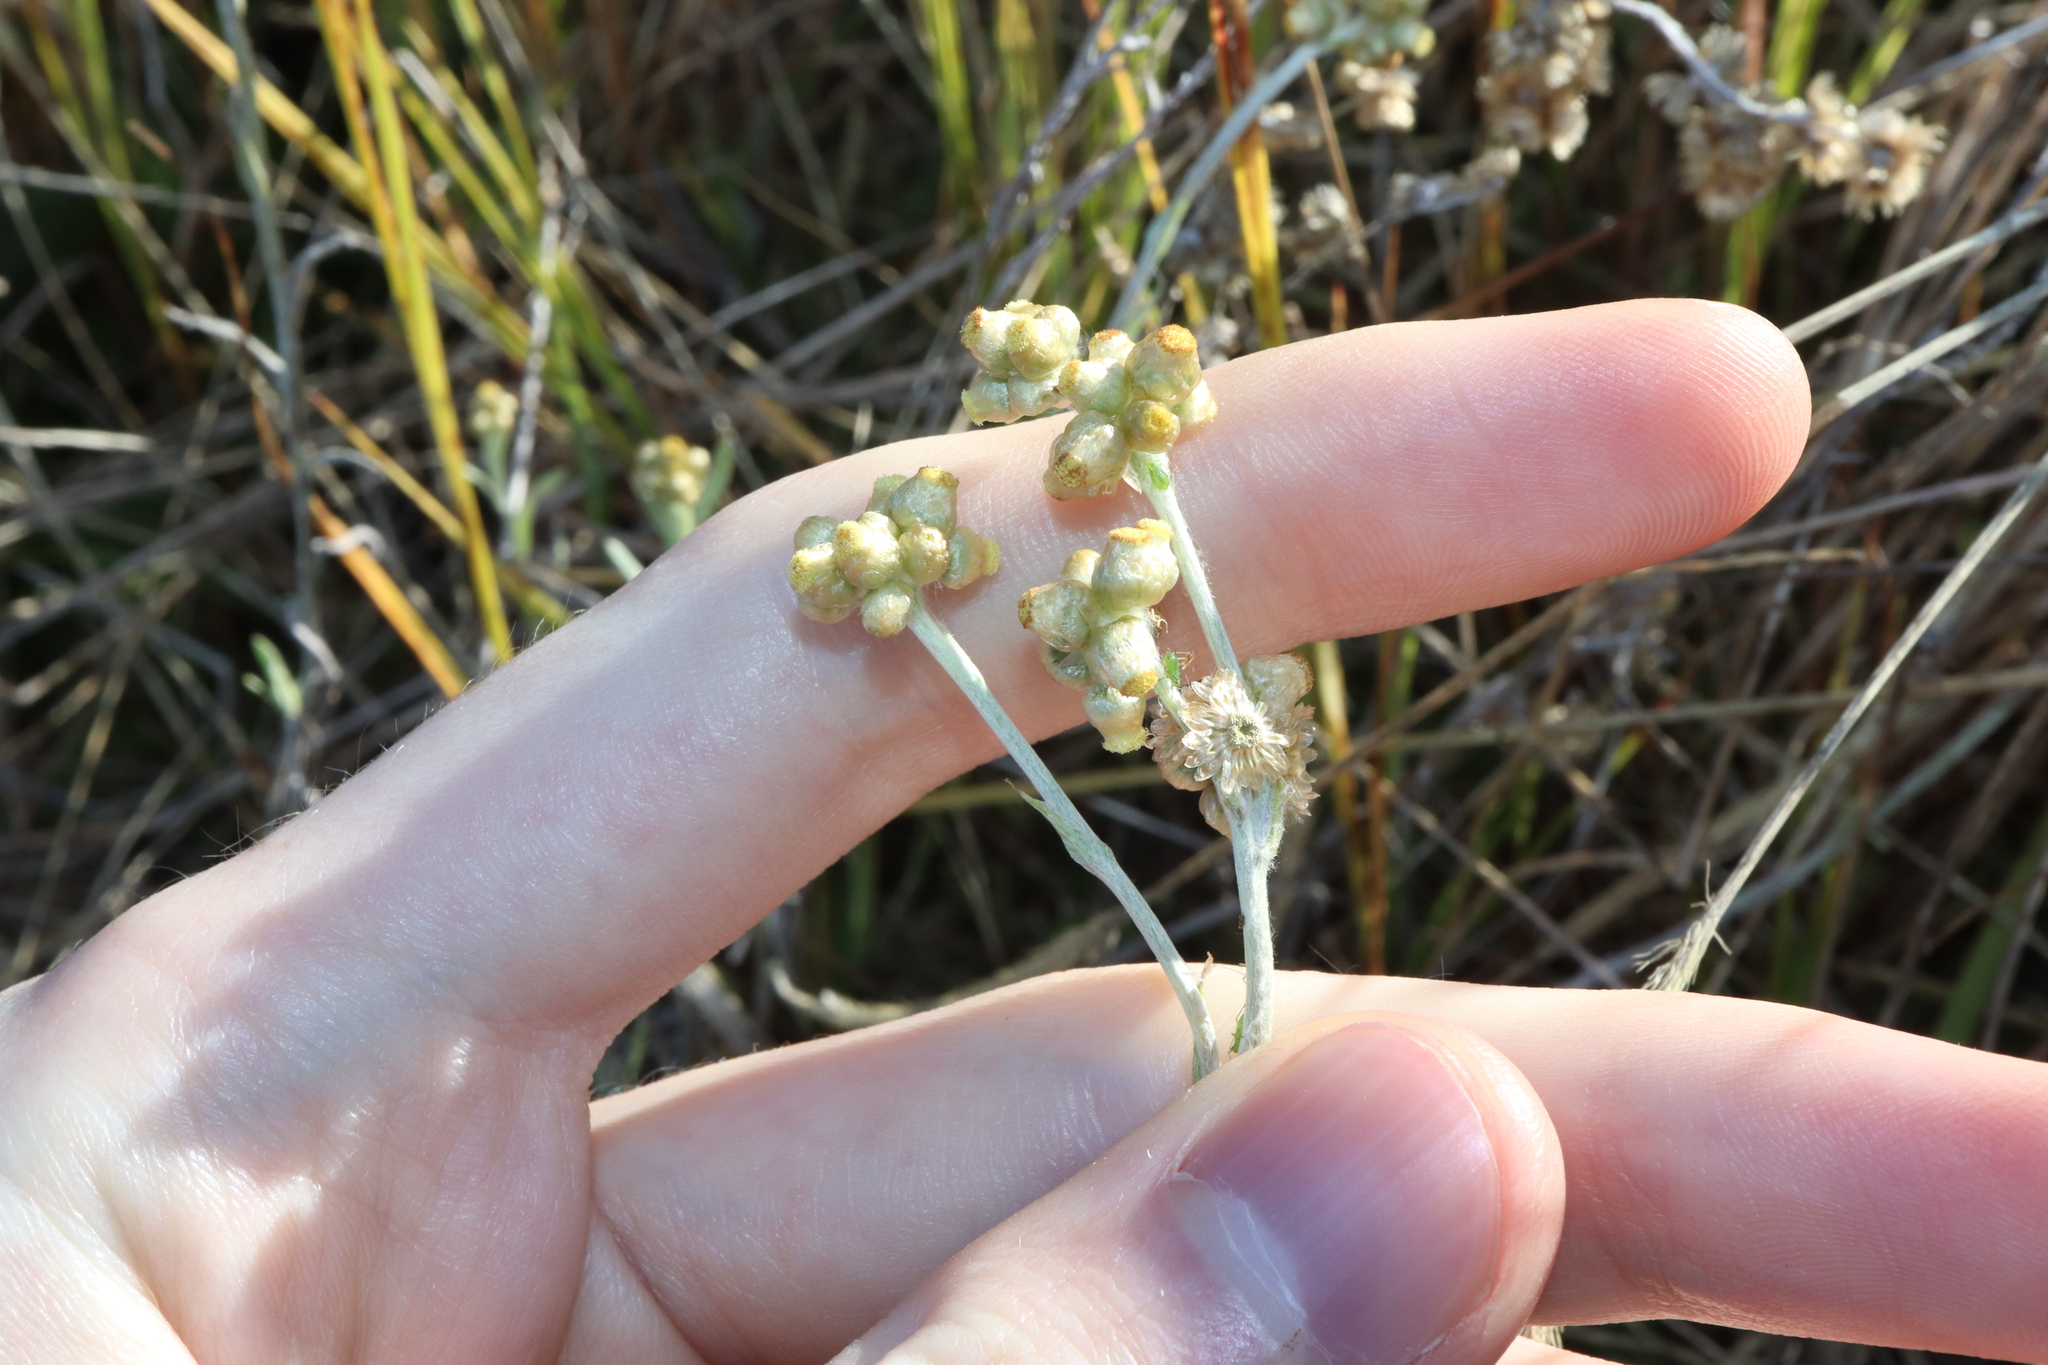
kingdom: Plantae
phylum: Tracheophyta
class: Magnoliopsida
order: Asterales
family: Asteraceae
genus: Helichrysum
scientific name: Helichrysum luteoalbum
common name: Daisy
